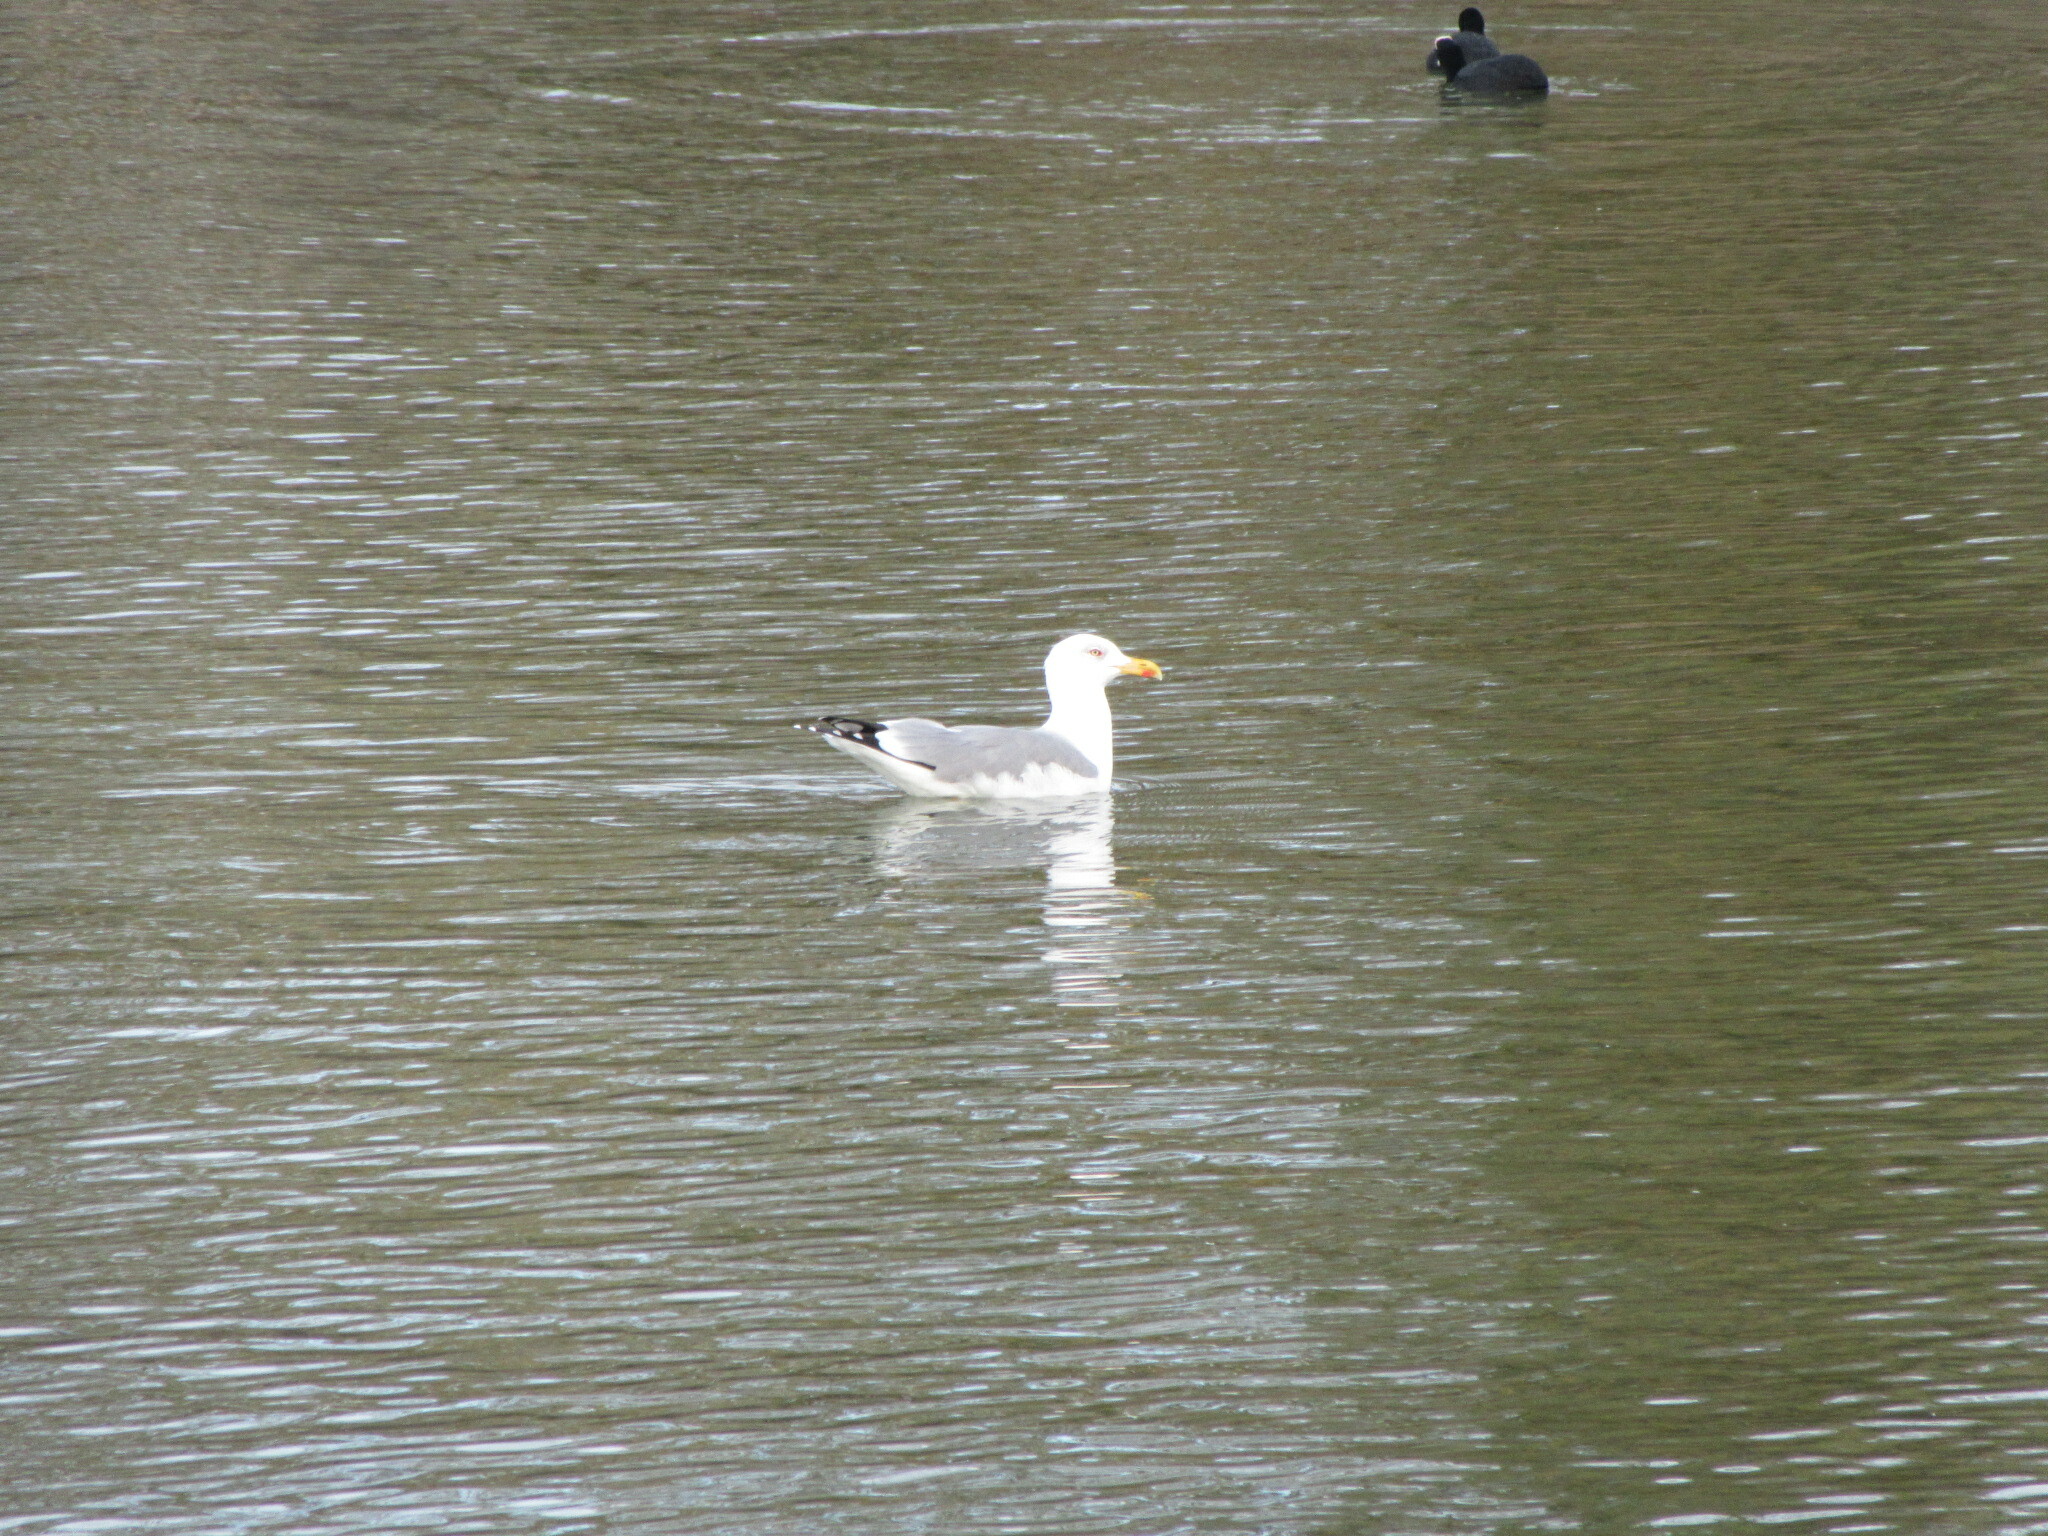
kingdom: Animalia
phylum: Chordata
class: Aves
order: Charadriiformes
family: Laridae
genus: Larus
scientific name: Larus michahellis
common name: Yellow-legged gull
